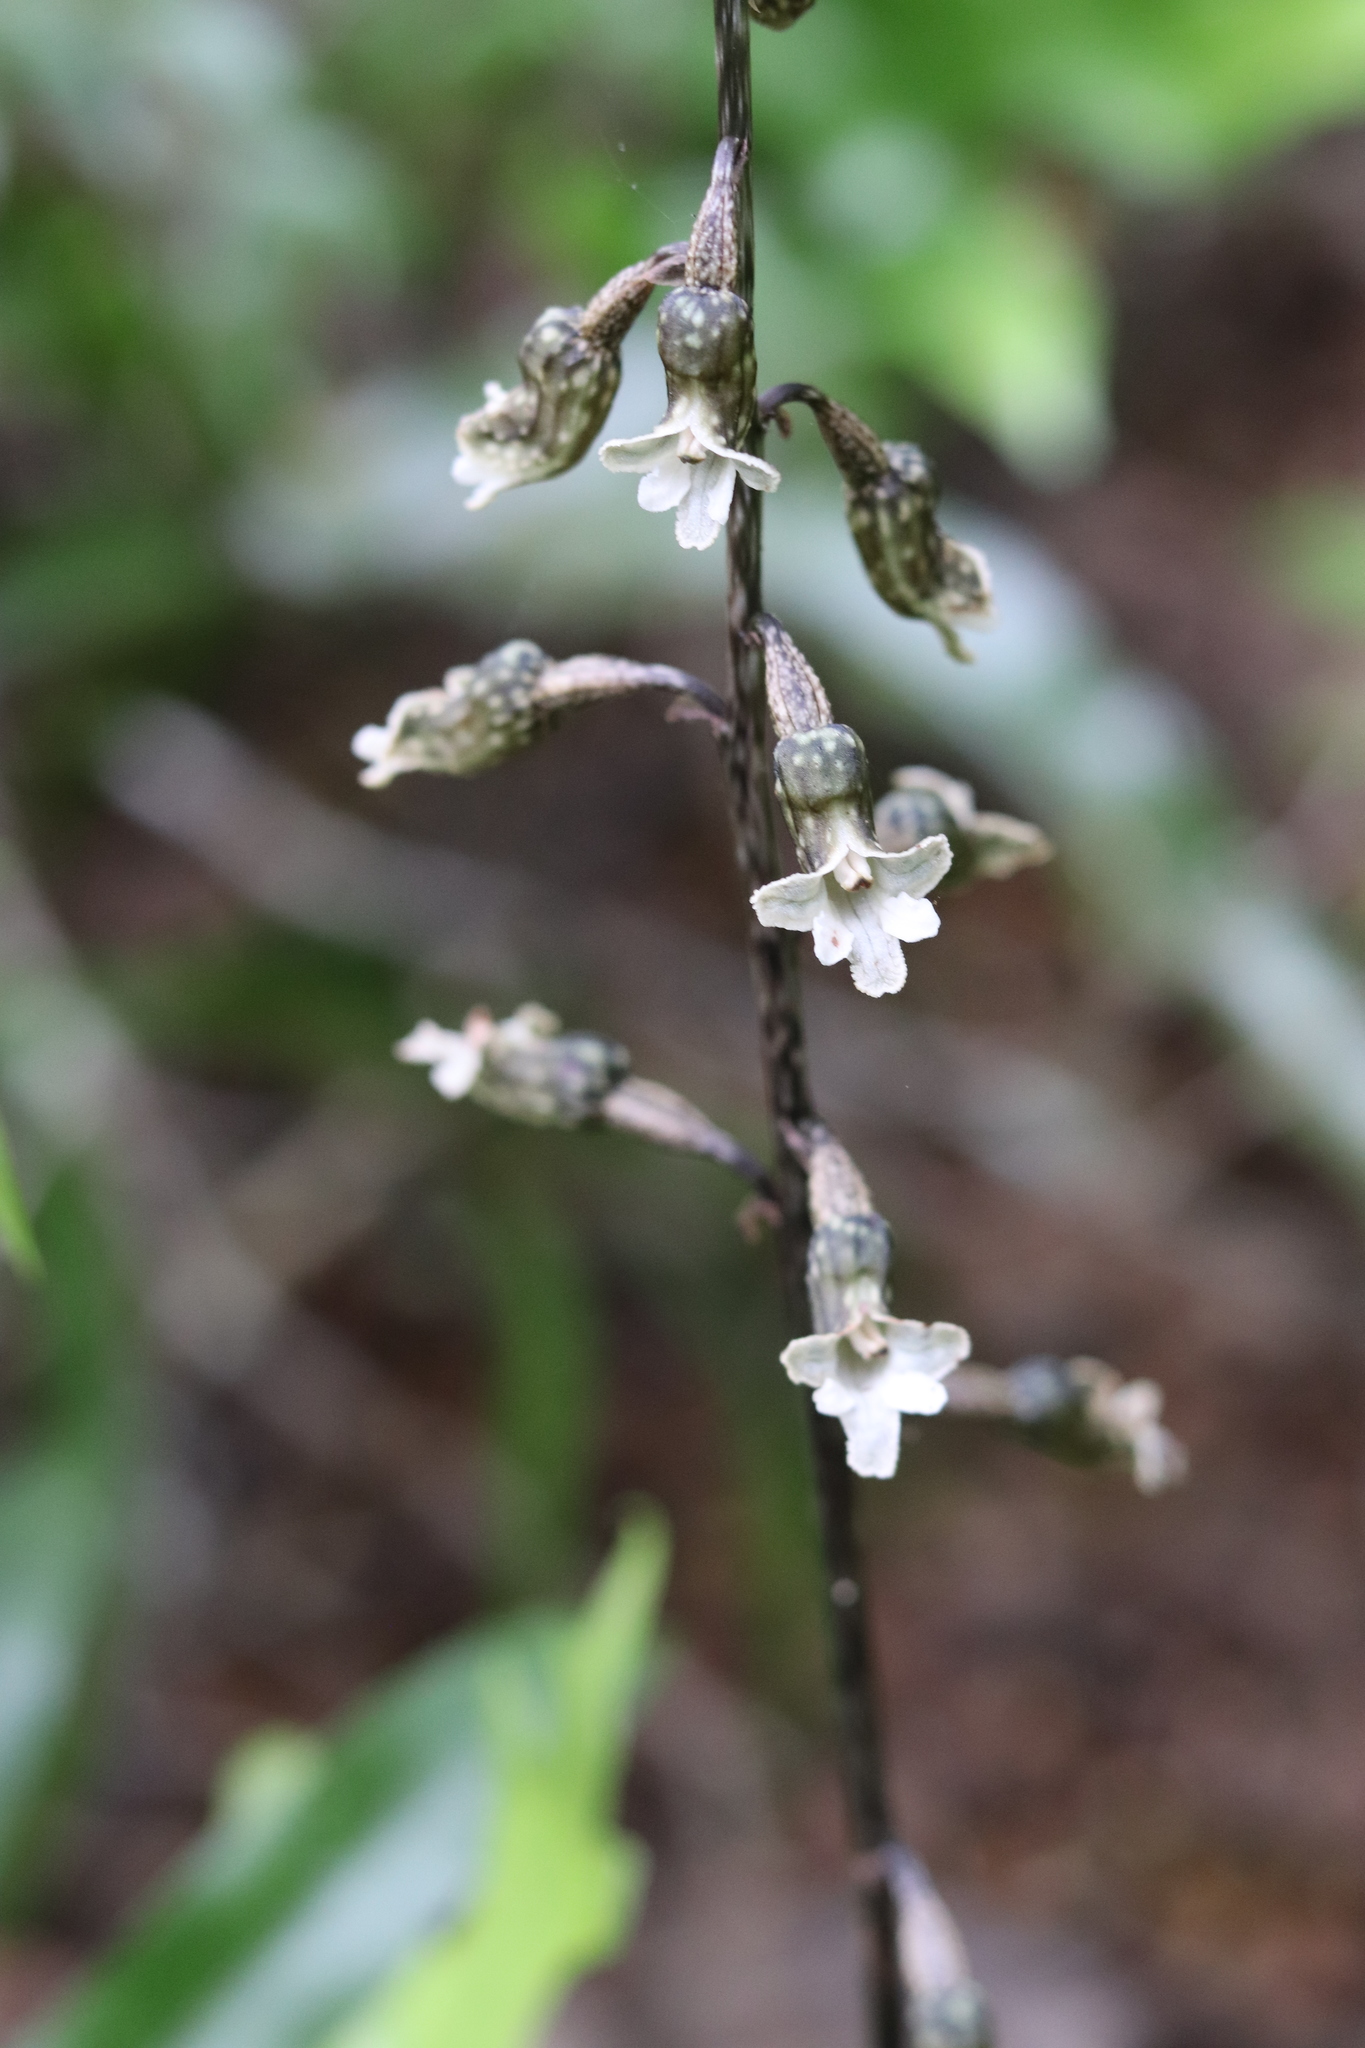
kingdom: Plantae
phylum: Tracheophyta
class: Liliopsida
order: Asparagales
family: Orchidaceae
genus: Gastrodia
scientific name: Gastrodia cunninghamii
